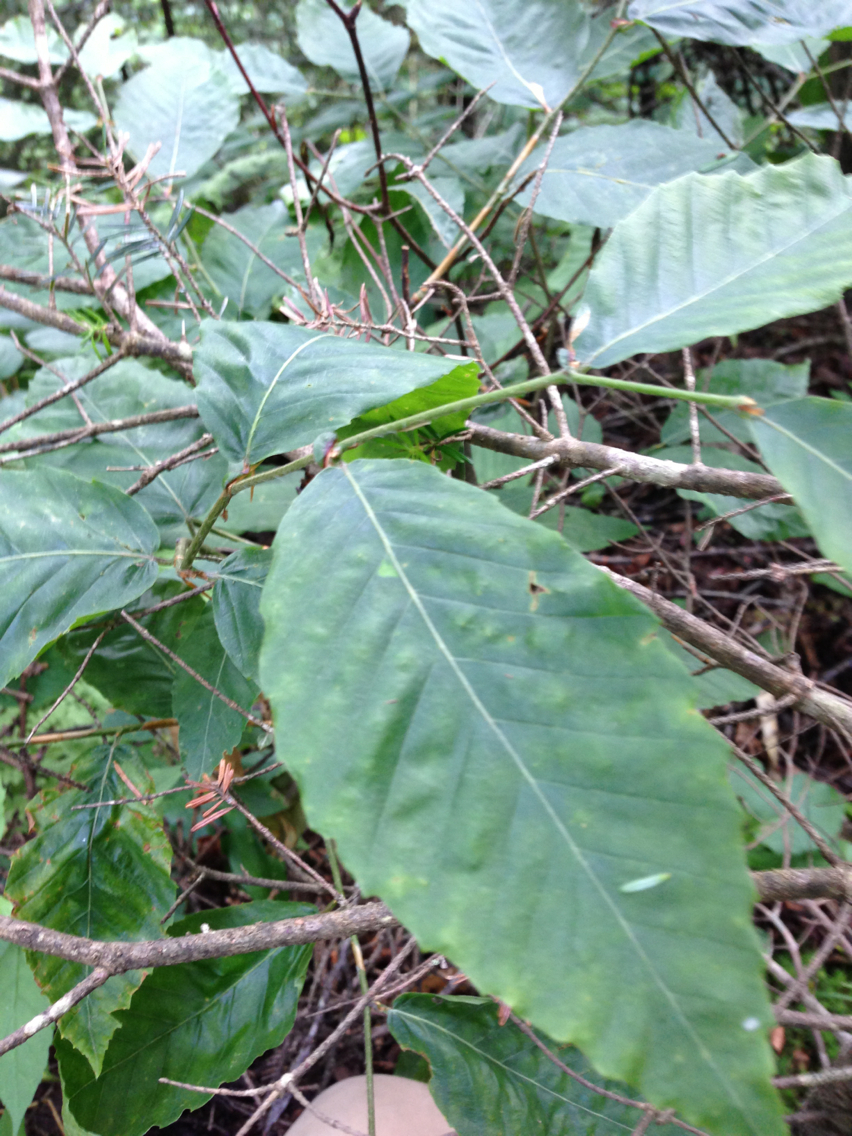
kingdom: Plantae
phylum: Tracheophyta
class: Magnoliopsida
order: Fagales
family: Fagaceae
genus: Fagus
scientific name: Fagus grandifolia
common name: American beech
